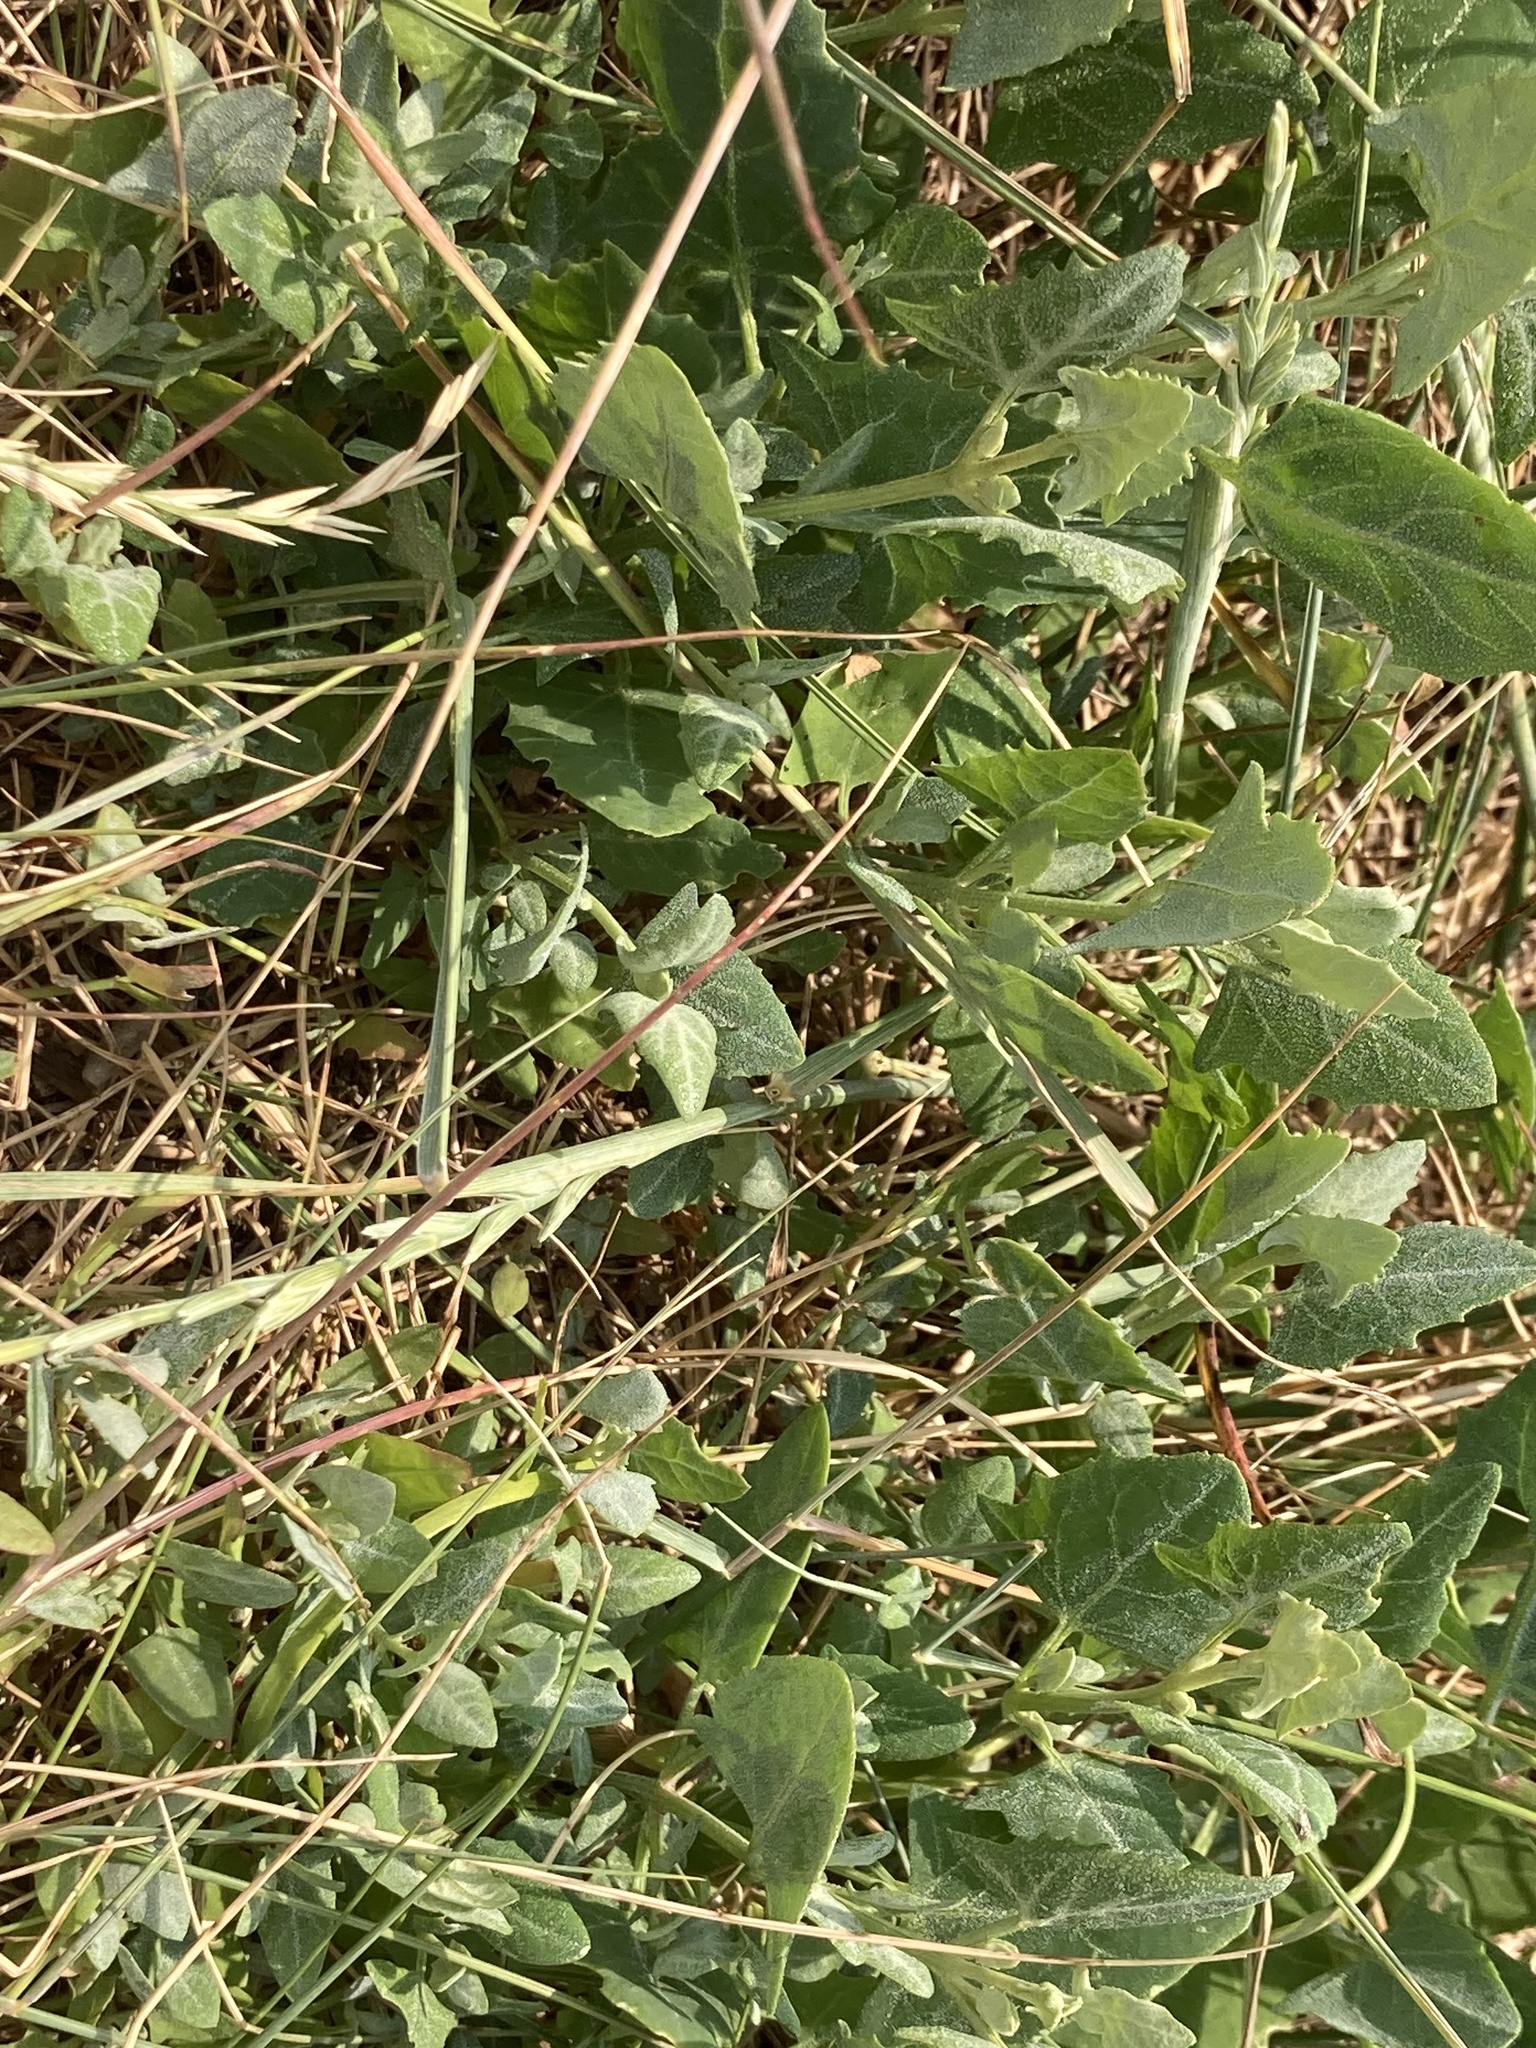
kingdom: Plantae
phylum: Tracheophyta
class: Magnoliopsida
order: Caryophyllales
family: Amaranthaceae
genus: Beta
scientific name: Beta vulgaris
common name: Beet
